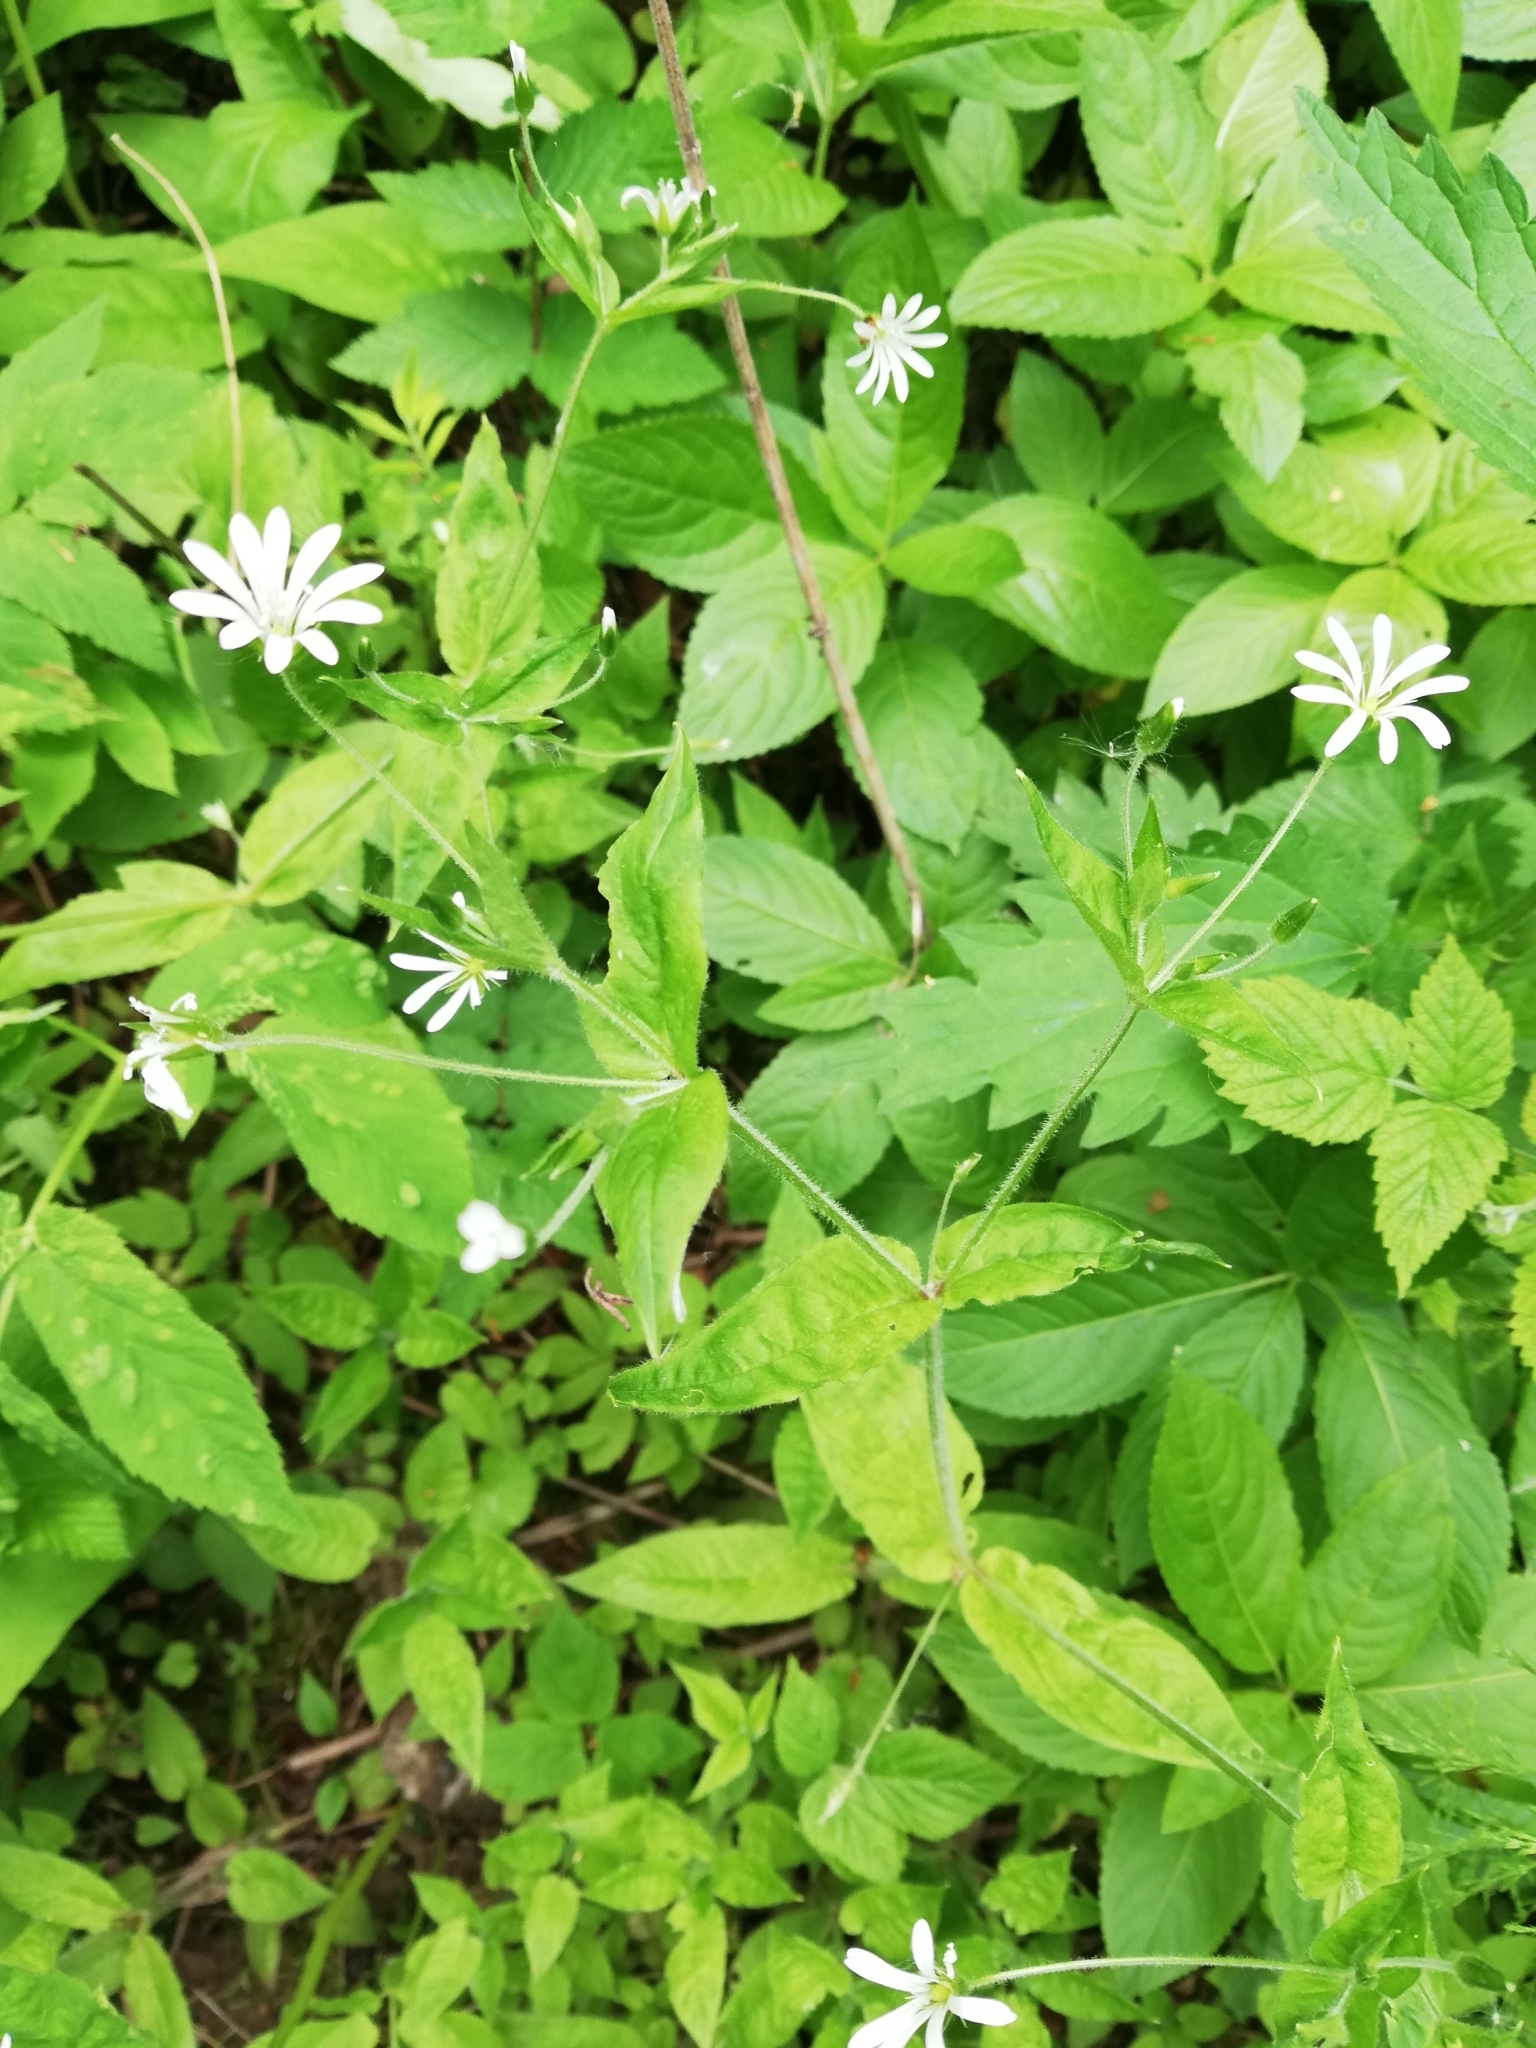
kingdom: Plantae
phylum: Tracheophyta
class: Magnoliopsida
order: Caryophyllales
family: Caryophyllaceae
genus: Stellaria
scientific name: Stellaria nemorum
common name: Wood stitchwort
